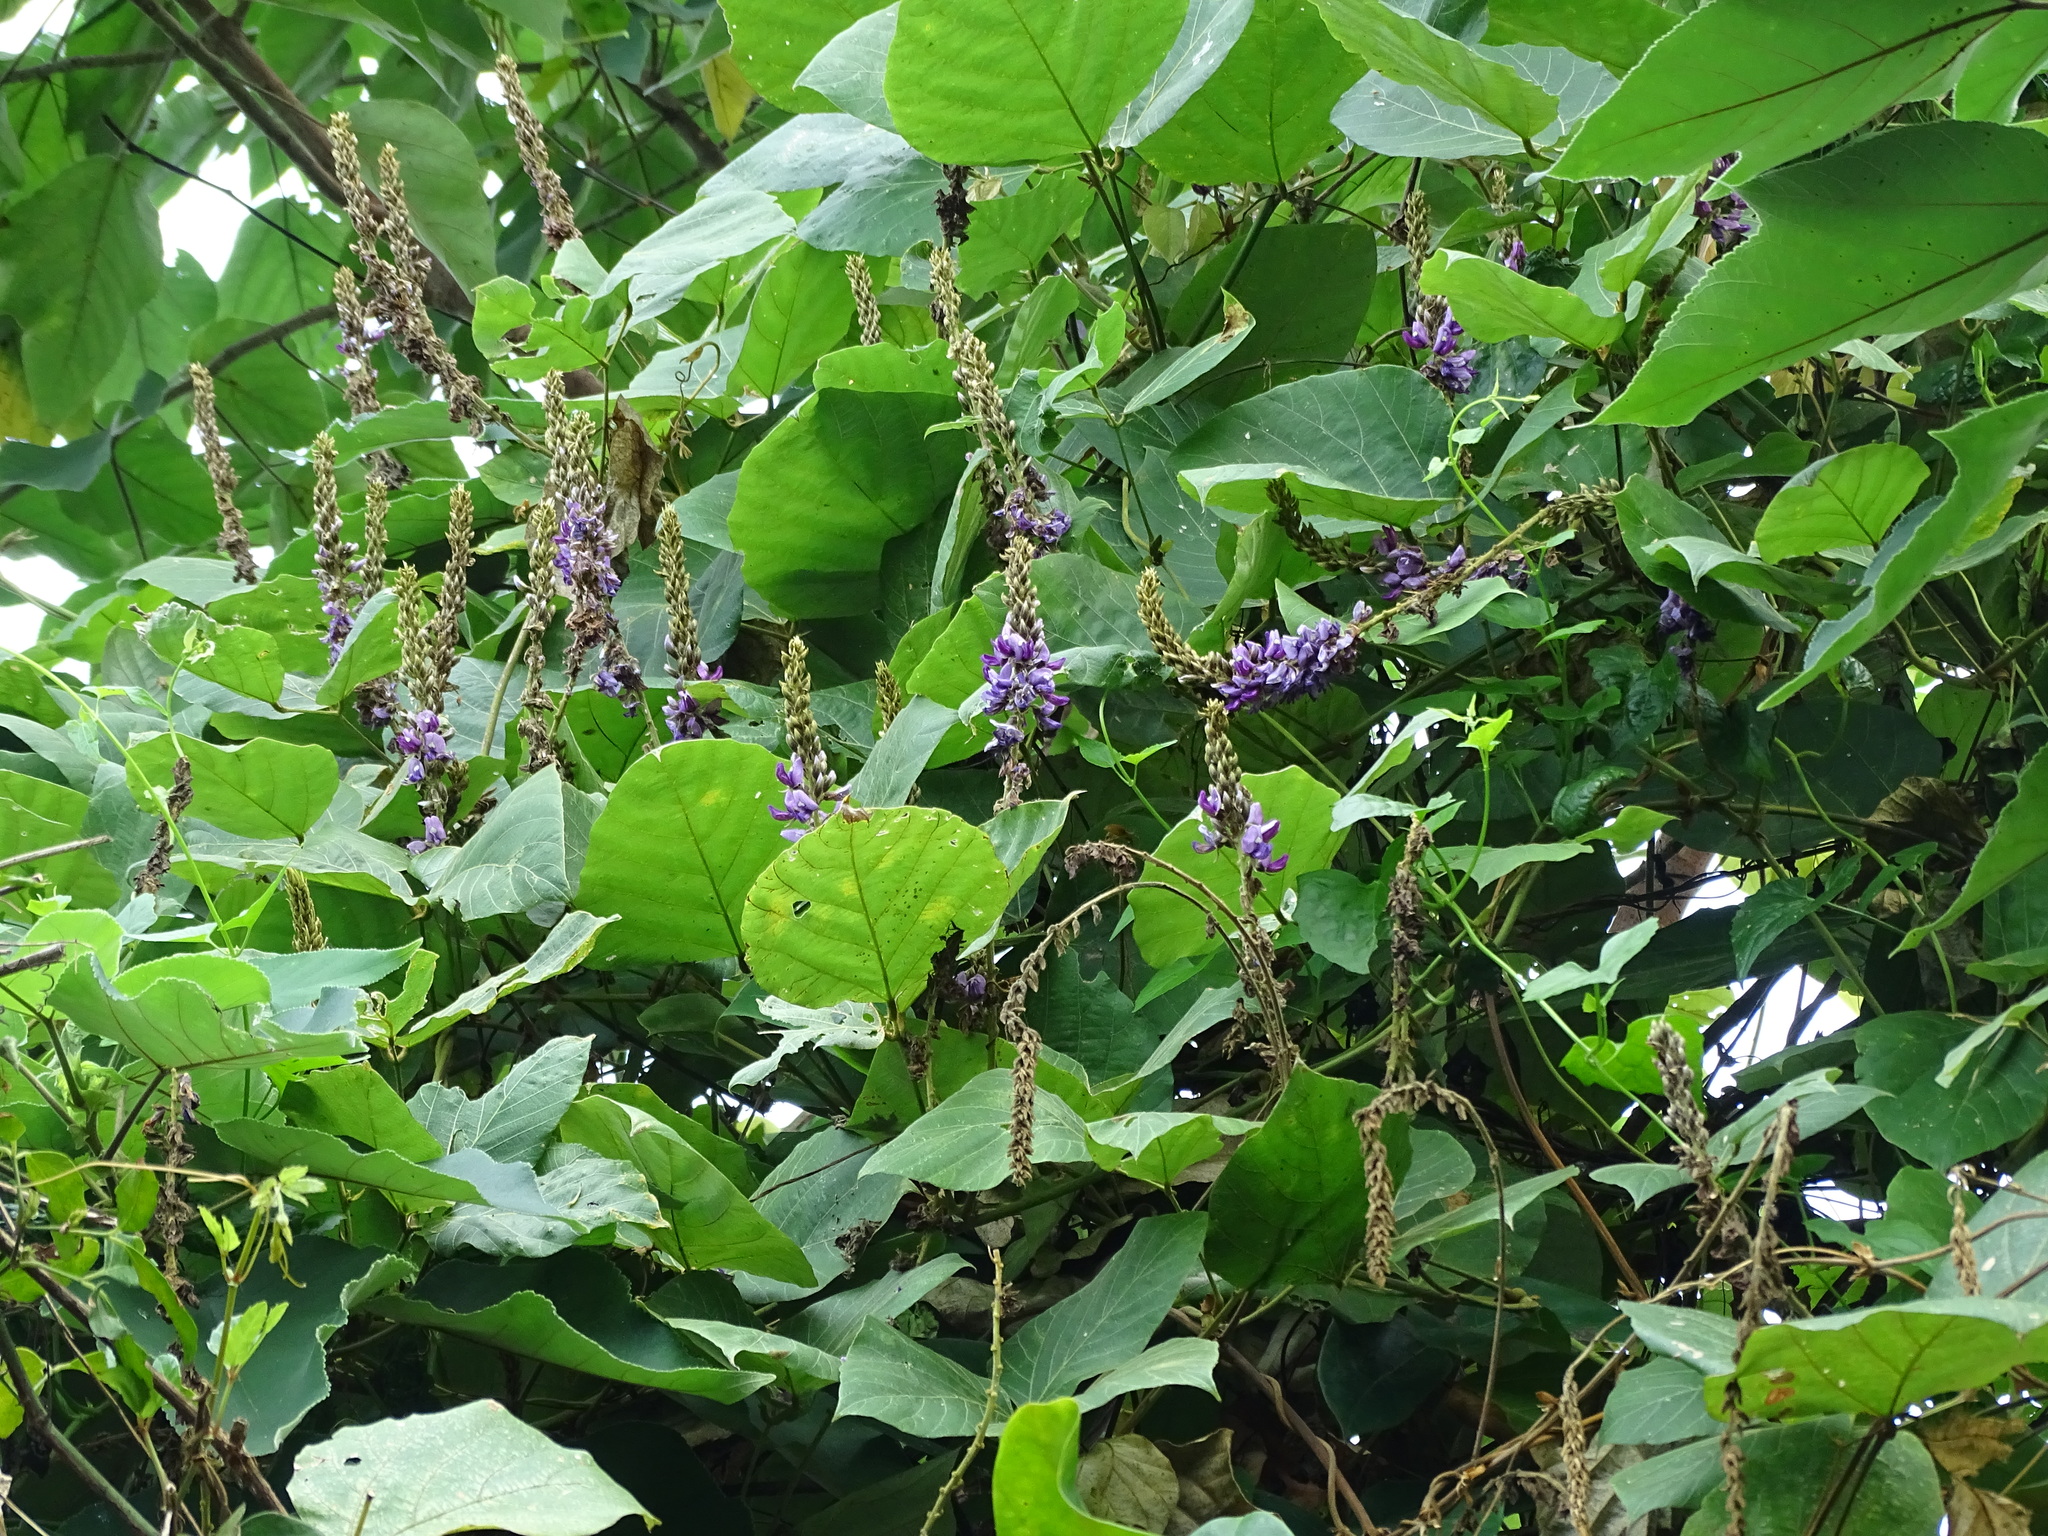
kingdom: Plantae
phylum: Tracheophyta
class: Magnoliopsida
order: Fabales
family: Fabaceae
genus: Pueraria
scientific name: Pueraria montana
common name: Kudzu
